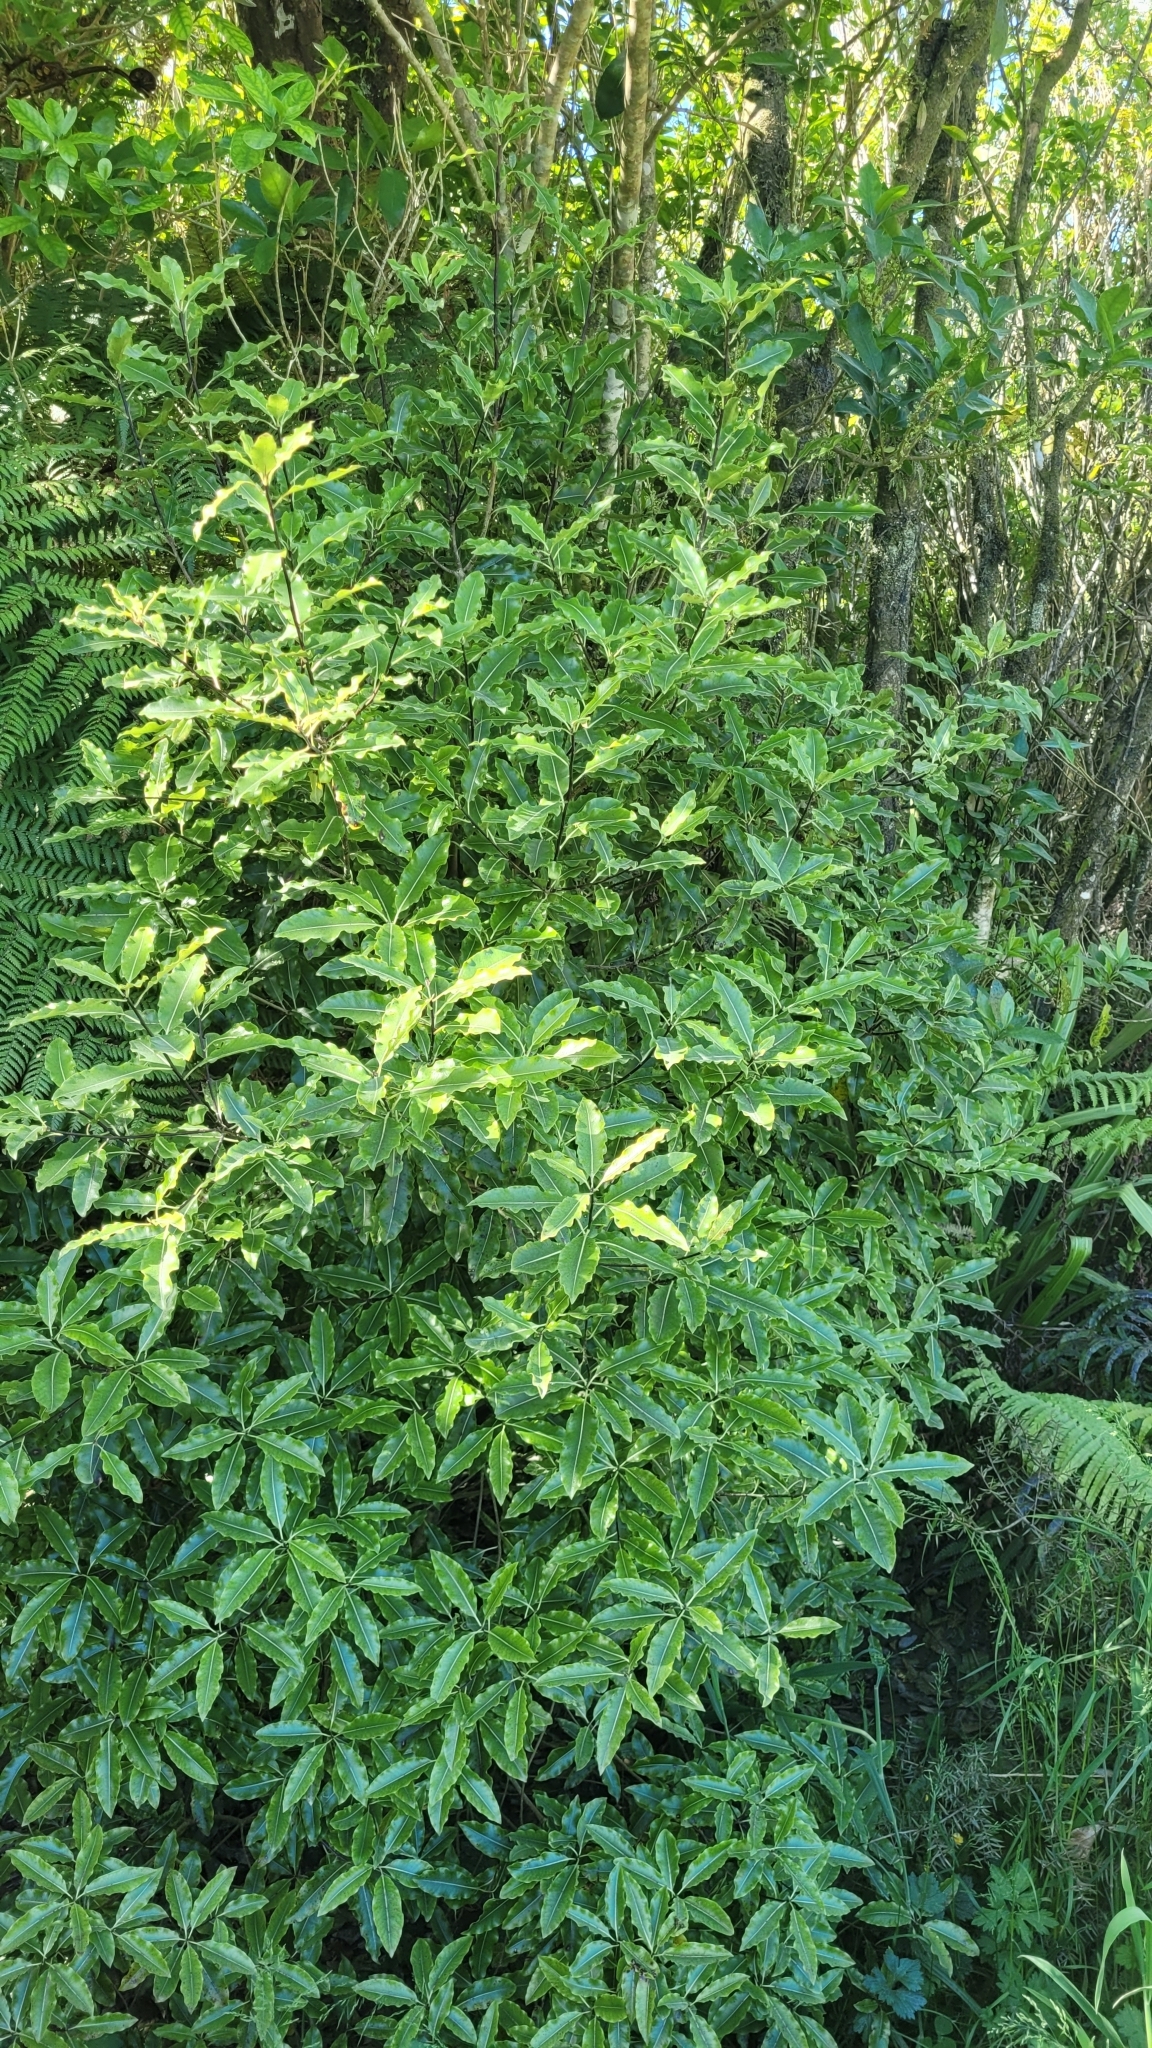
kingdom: Plantae
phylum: Tracheophyta
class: Magnoliopsida
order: Apiales
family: Pittosporaceae
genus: Pittosporum
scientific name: Pittosporum eugenioides
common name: Lemonwood
